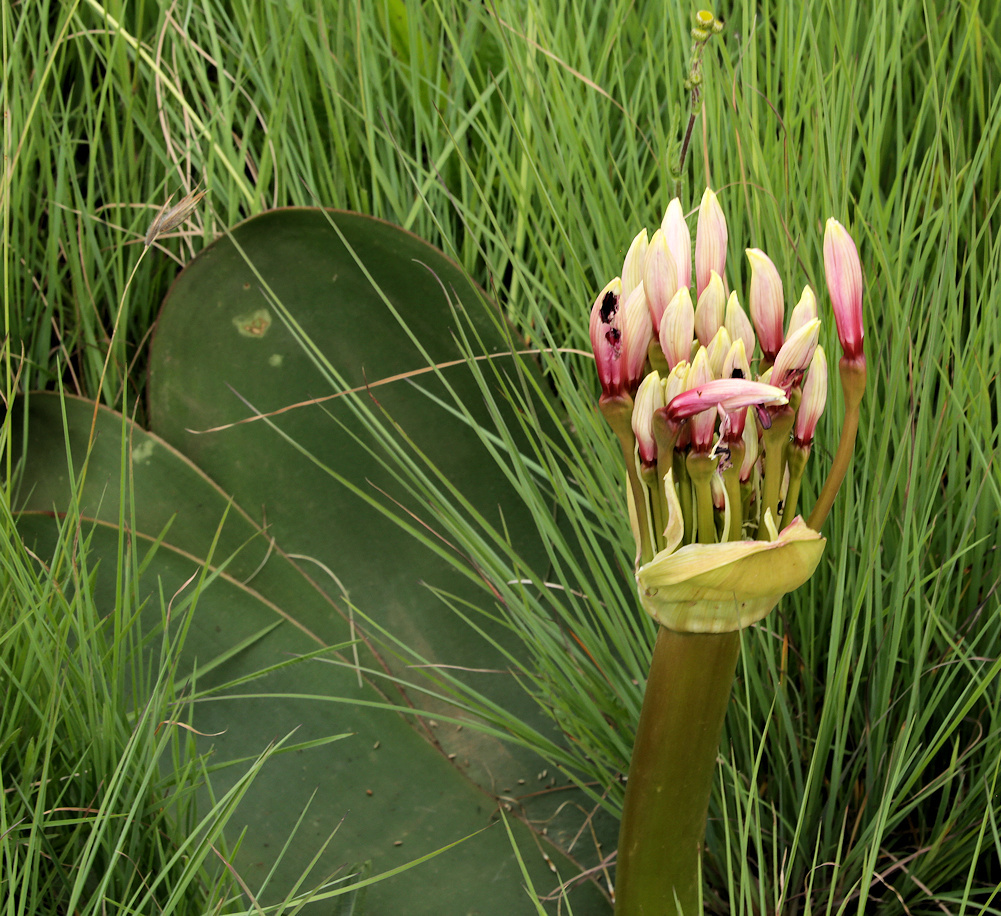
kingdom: Plantae
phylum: Tracheophyta
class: Liliopsida
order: Asparagales
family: Amaryllidaceae
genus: Brunsvigia
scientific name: Brunsvigia radulosa
